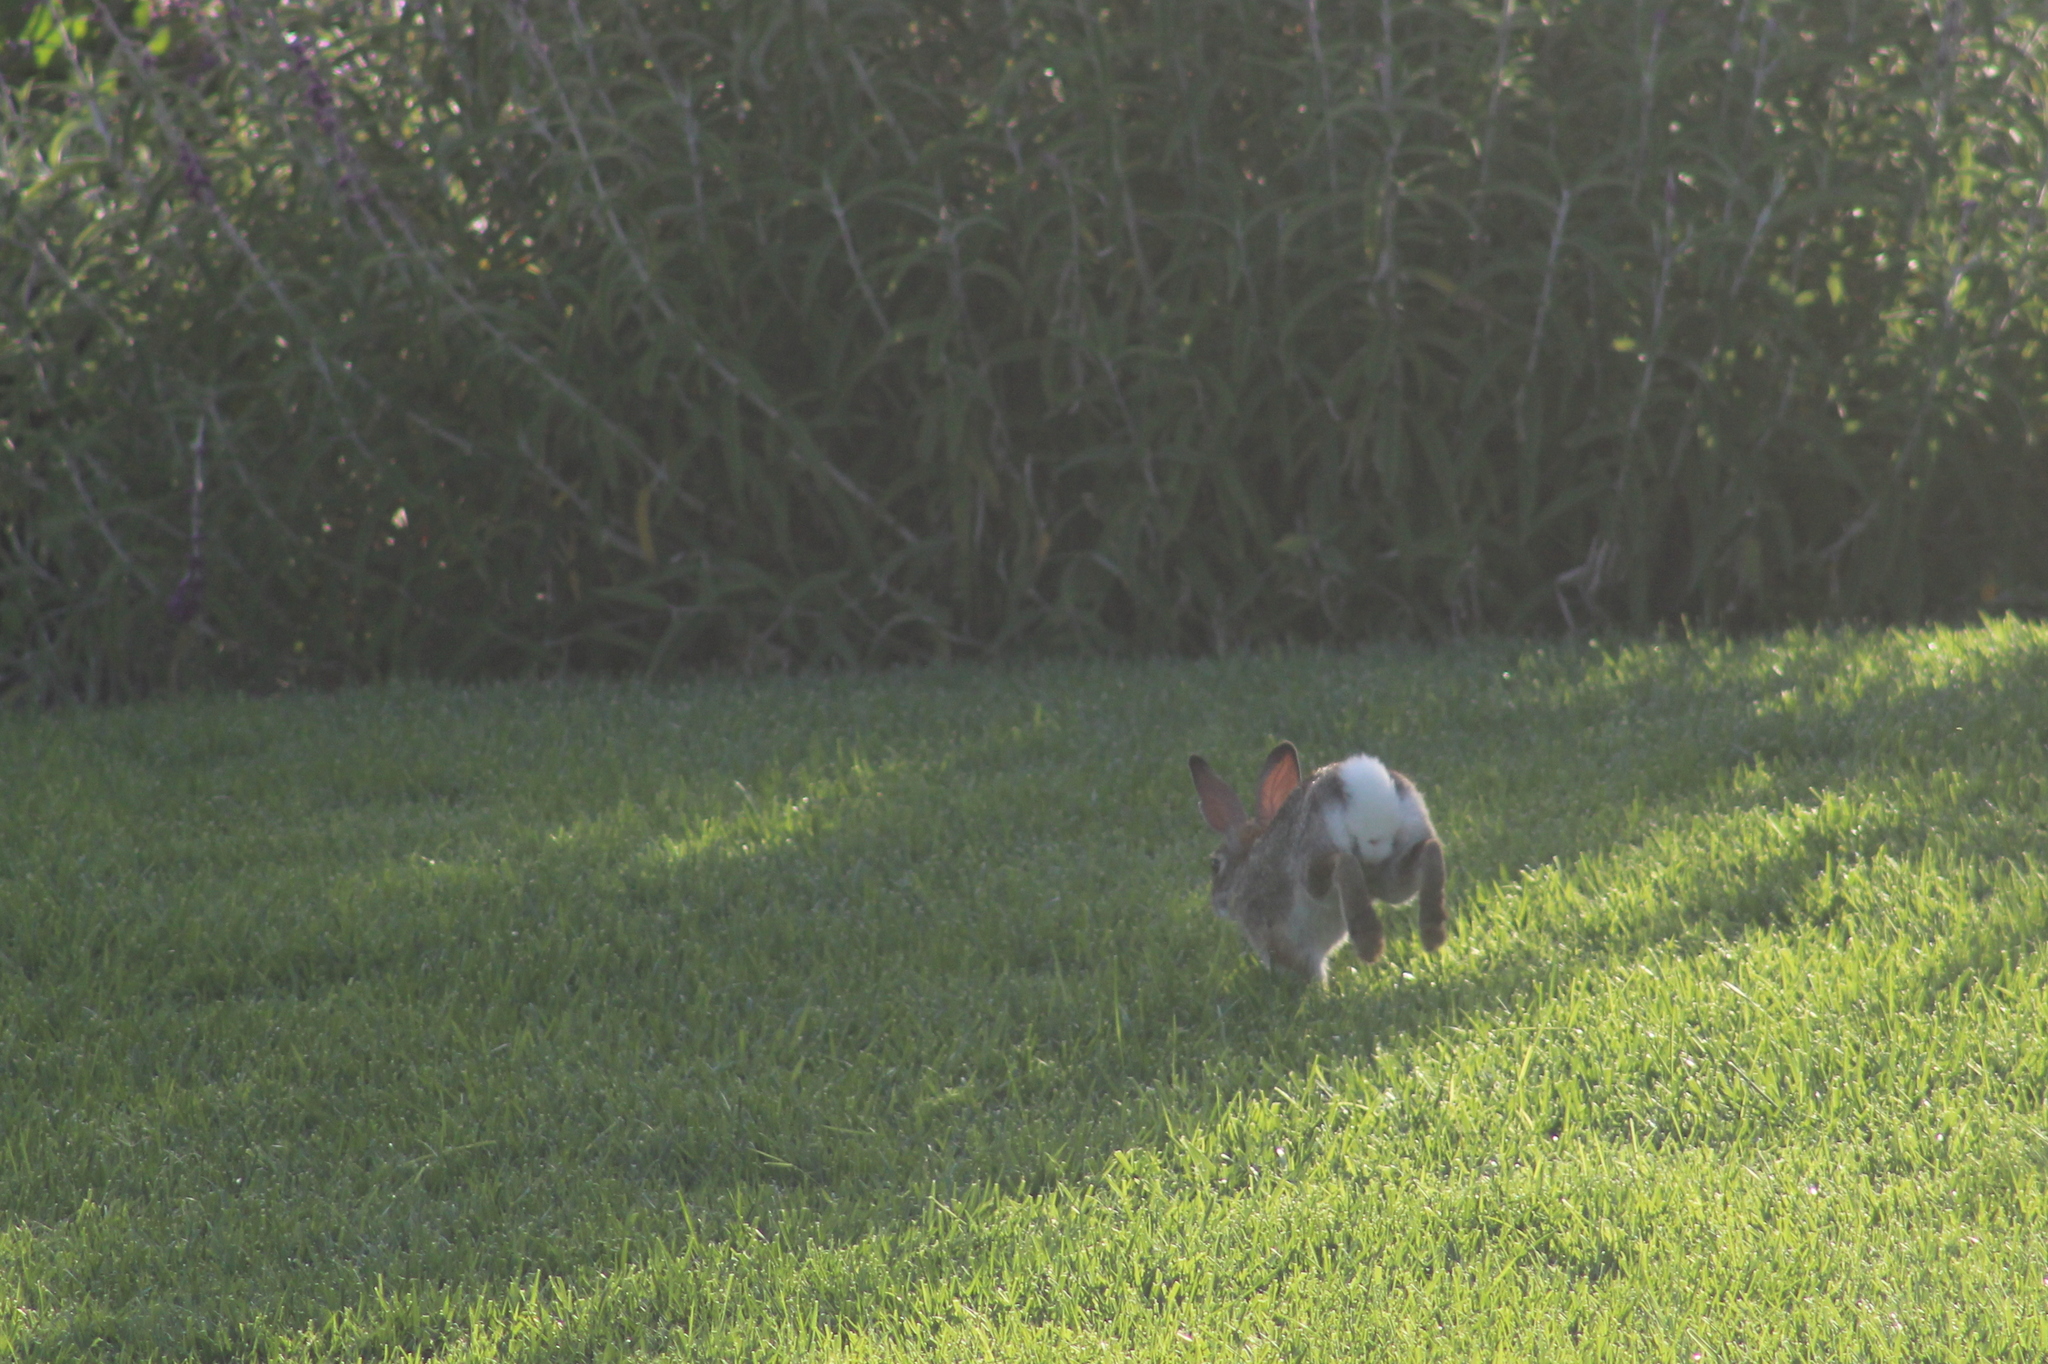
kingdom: Animalia
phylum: Chordata
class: Mammalia
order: Lagomorpha
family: Leporidae
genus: Sylvilagus
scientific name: Sylvilagus audubonii
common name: Desert cottontail
